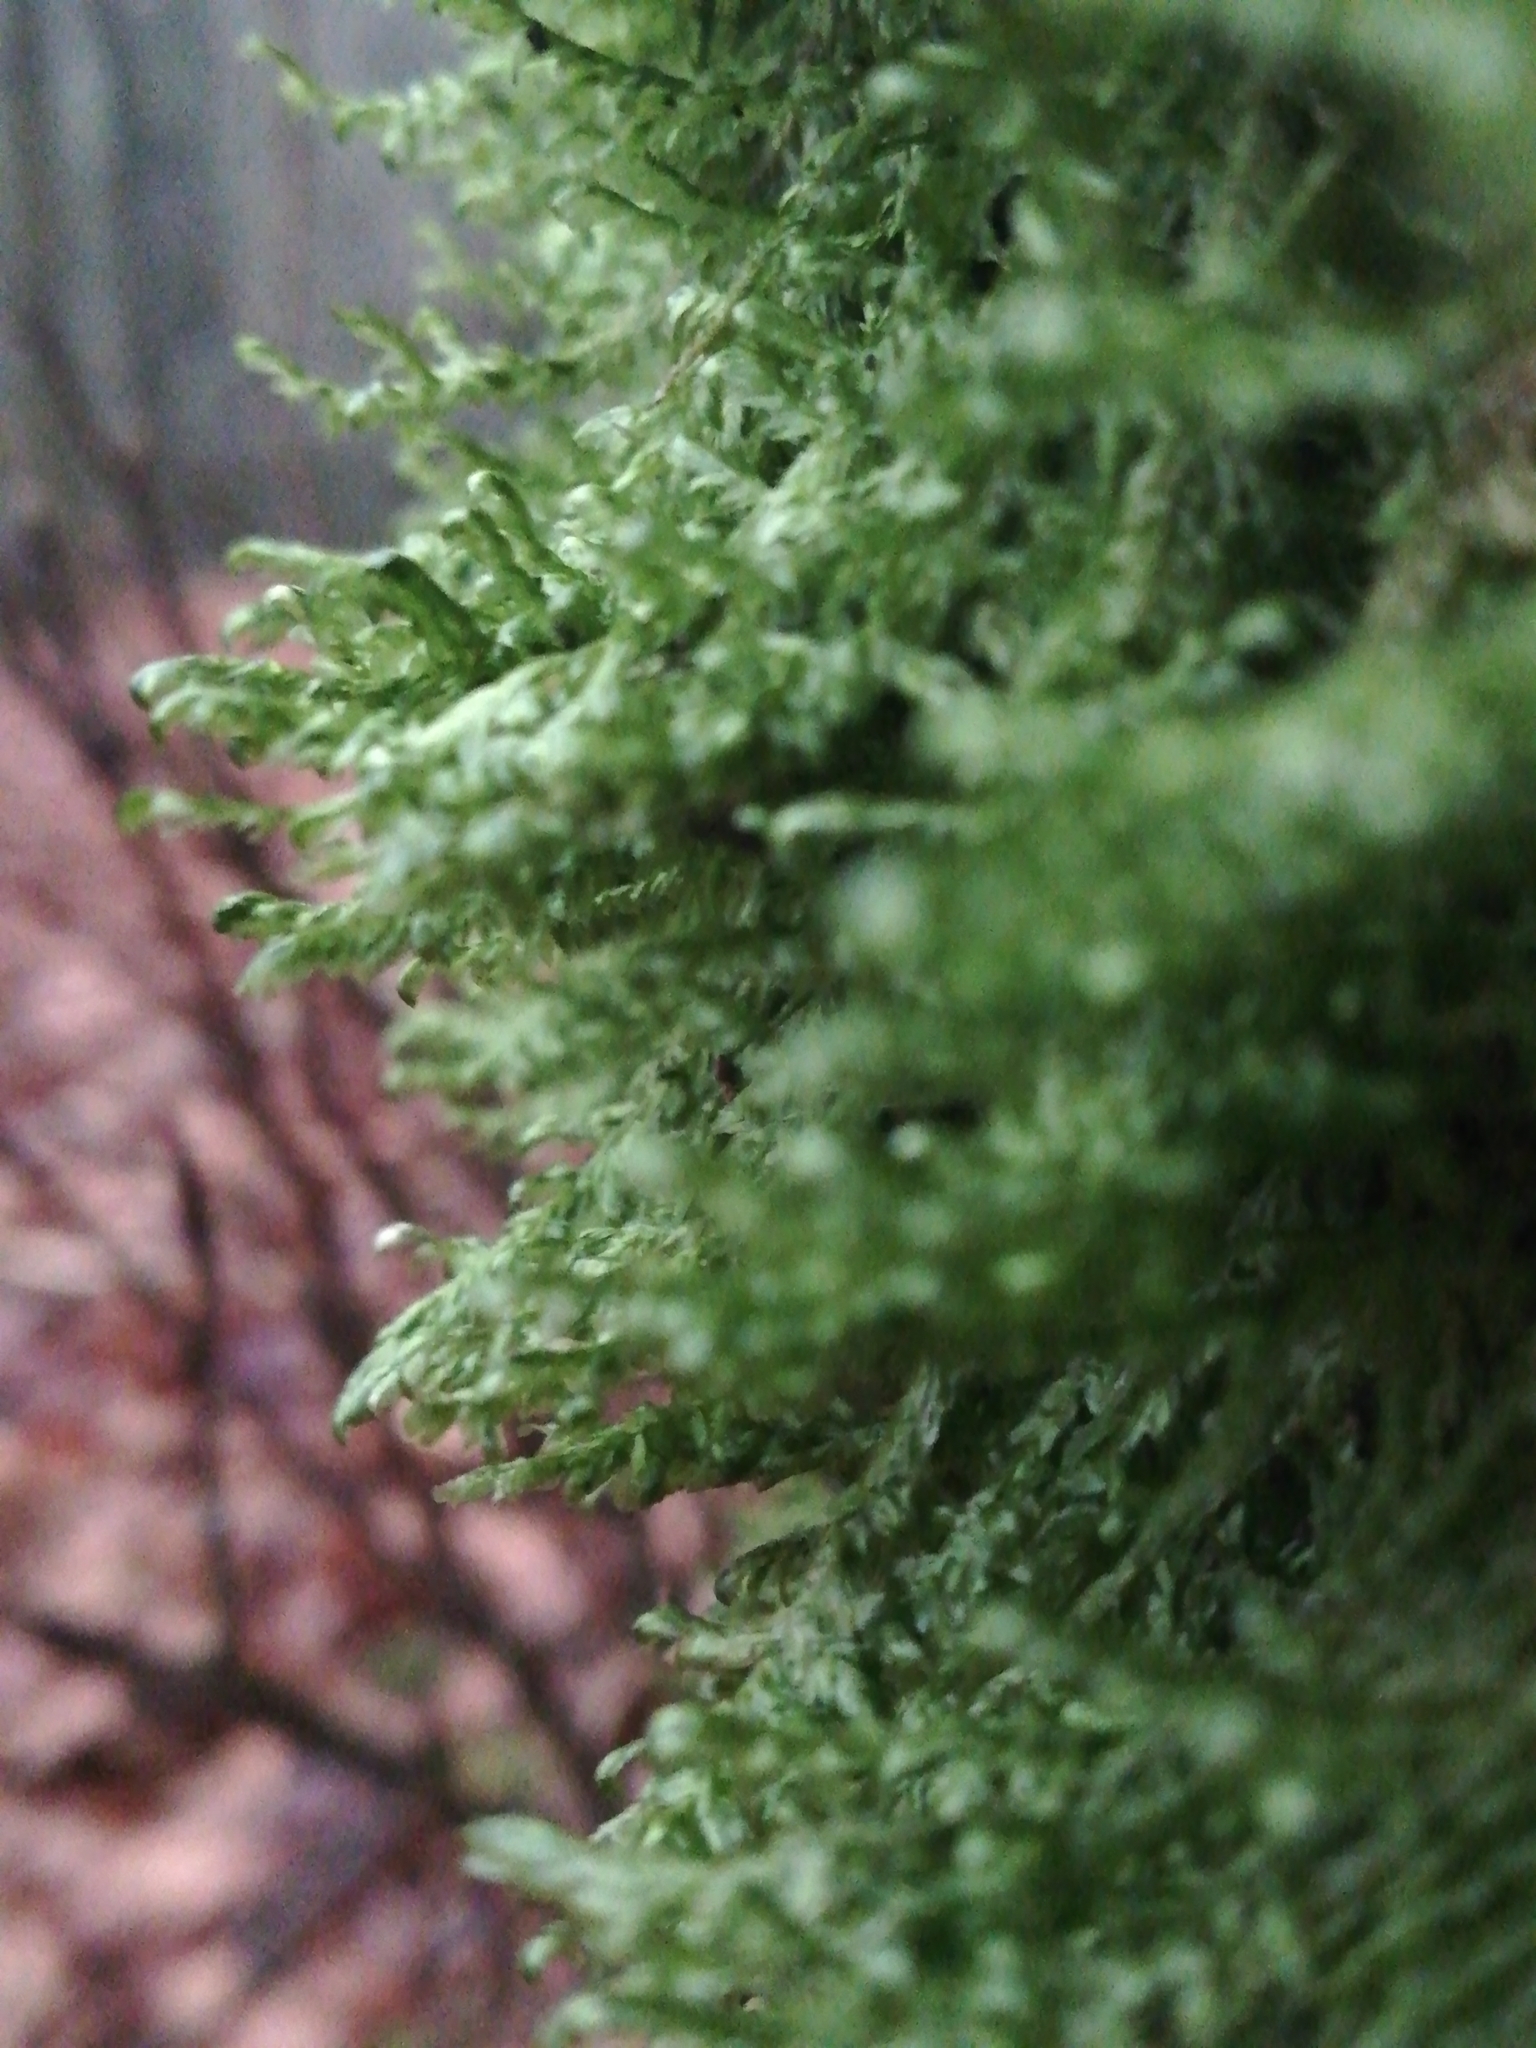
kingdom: Plantae
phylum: Bryophyta
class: Bryopsida
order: Hypnales
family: Neckeraceae
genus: Alleniella
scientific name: Alleniella complanata
